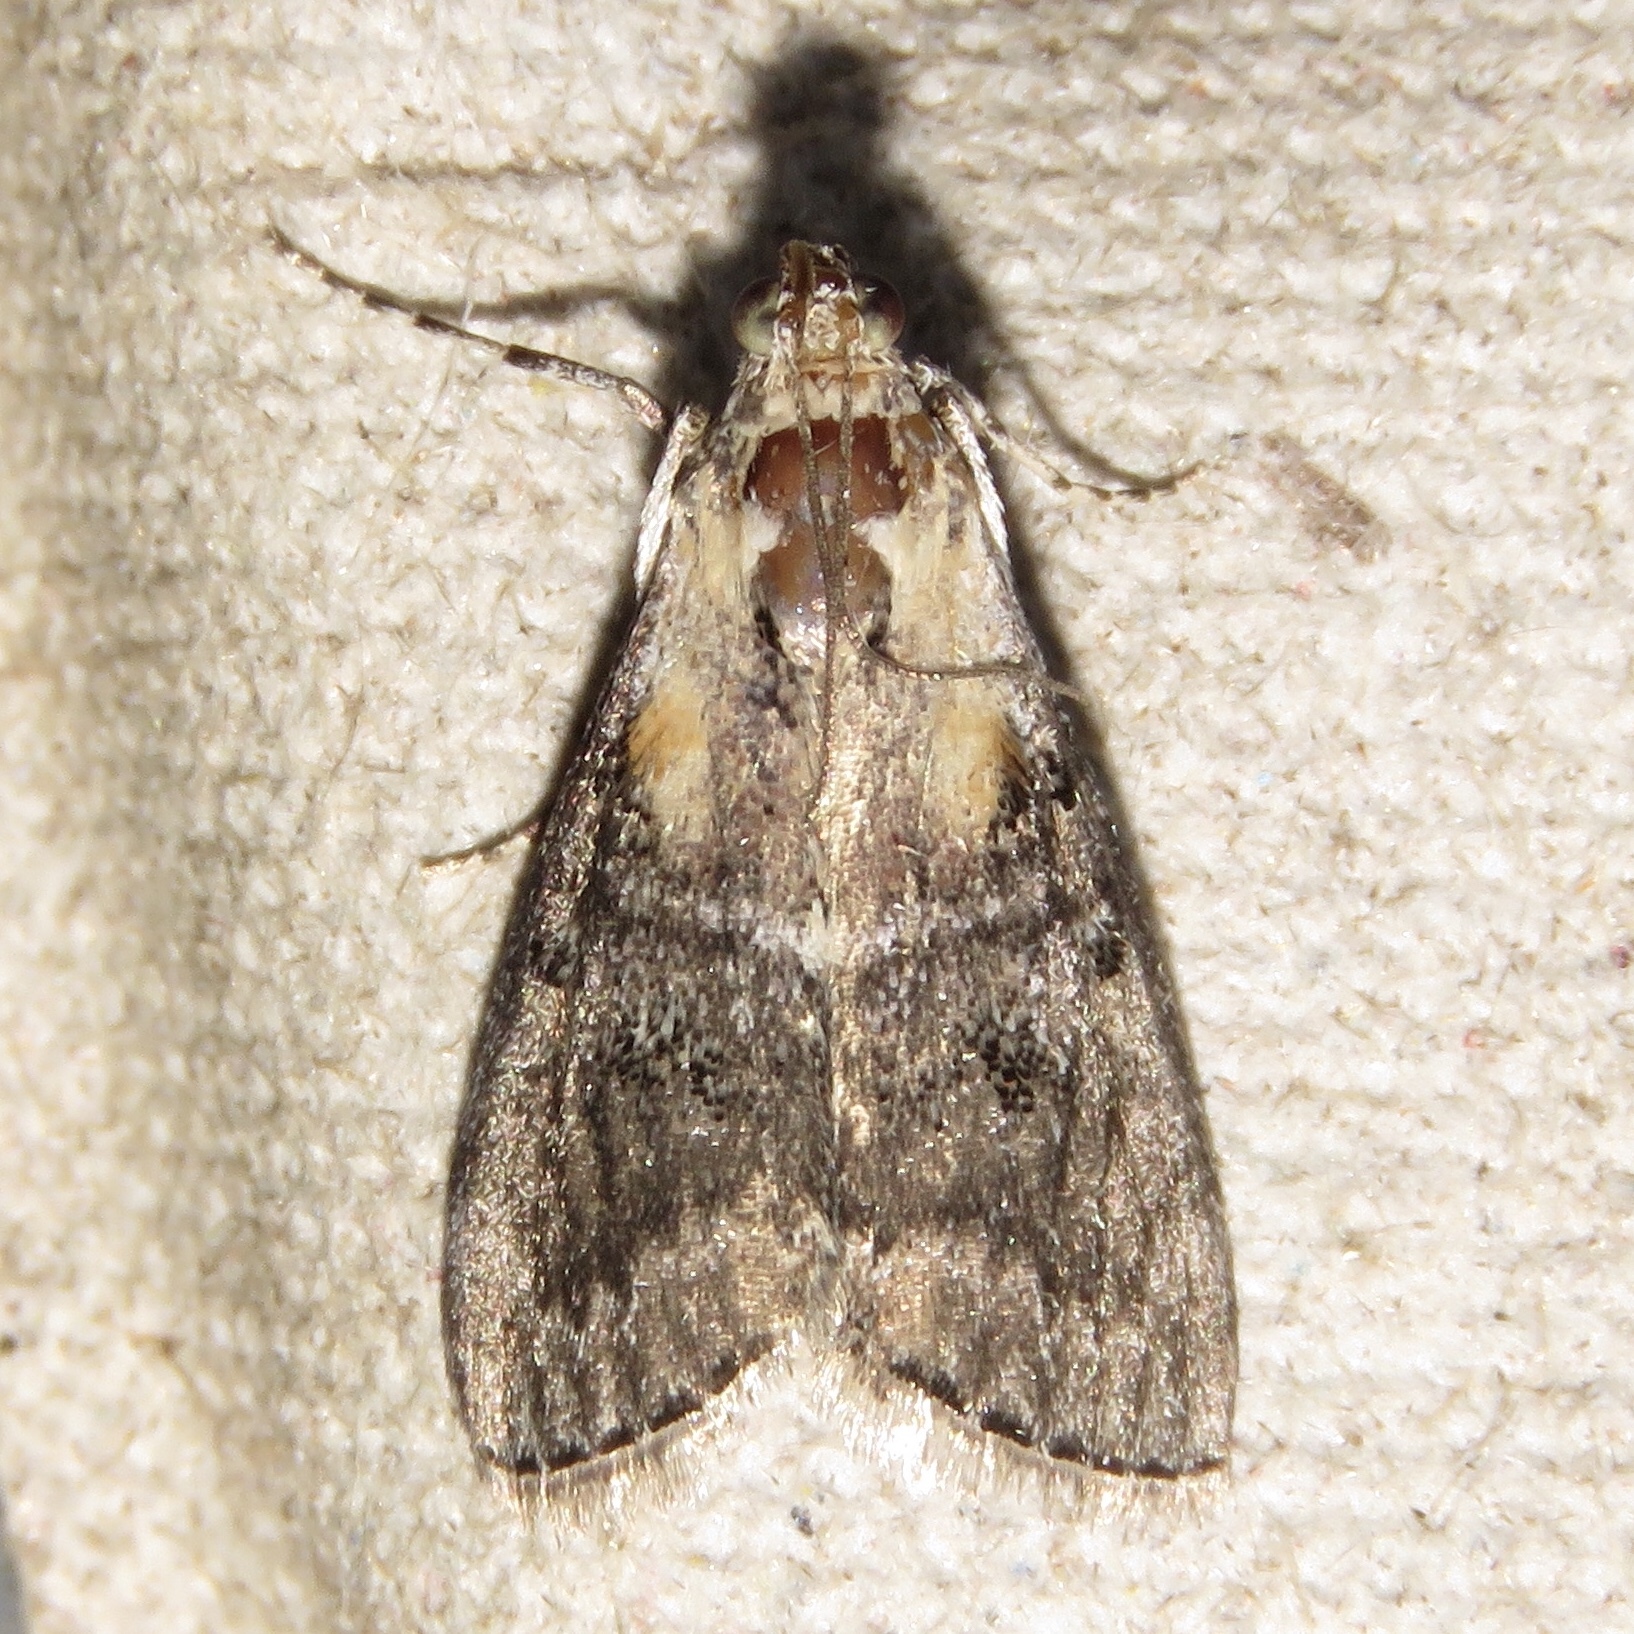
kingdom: Animalia
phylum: Arthropoda
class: Insecta
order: Lepidoptera
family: Pyralidae
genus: Pococera
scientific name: Pococera expandens
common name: Striped oak webworm moth
